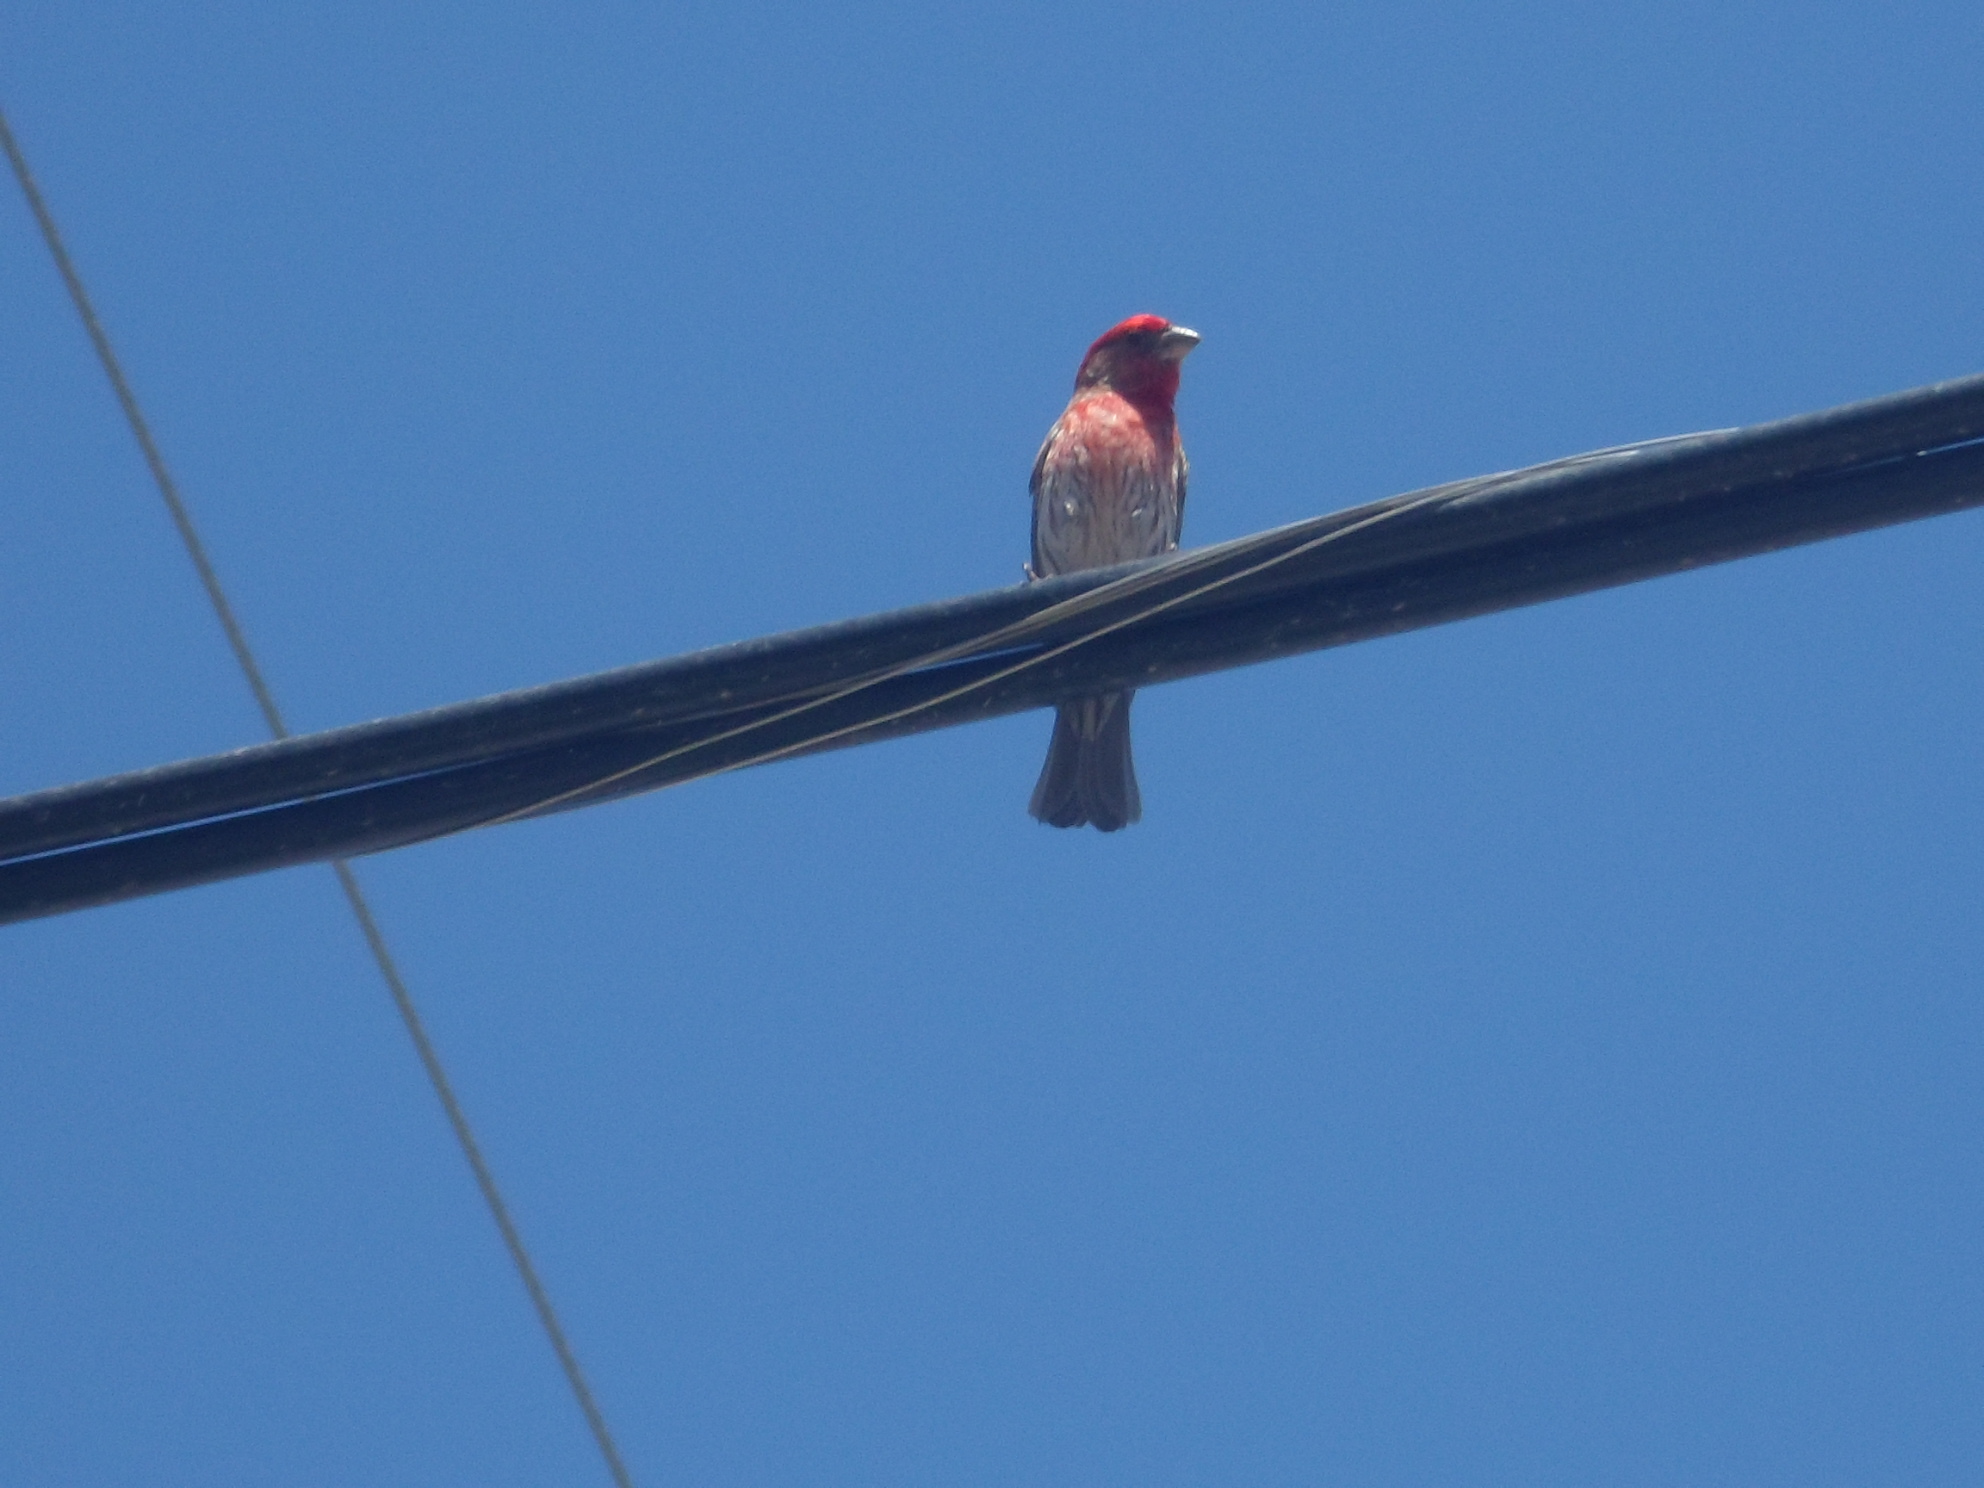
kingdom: Animalia
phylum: Chordata
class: Aves
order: Passeriformes
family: Fringillidae
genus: Haemorhous
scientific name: Haemorhous mexicanus
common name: House finch
